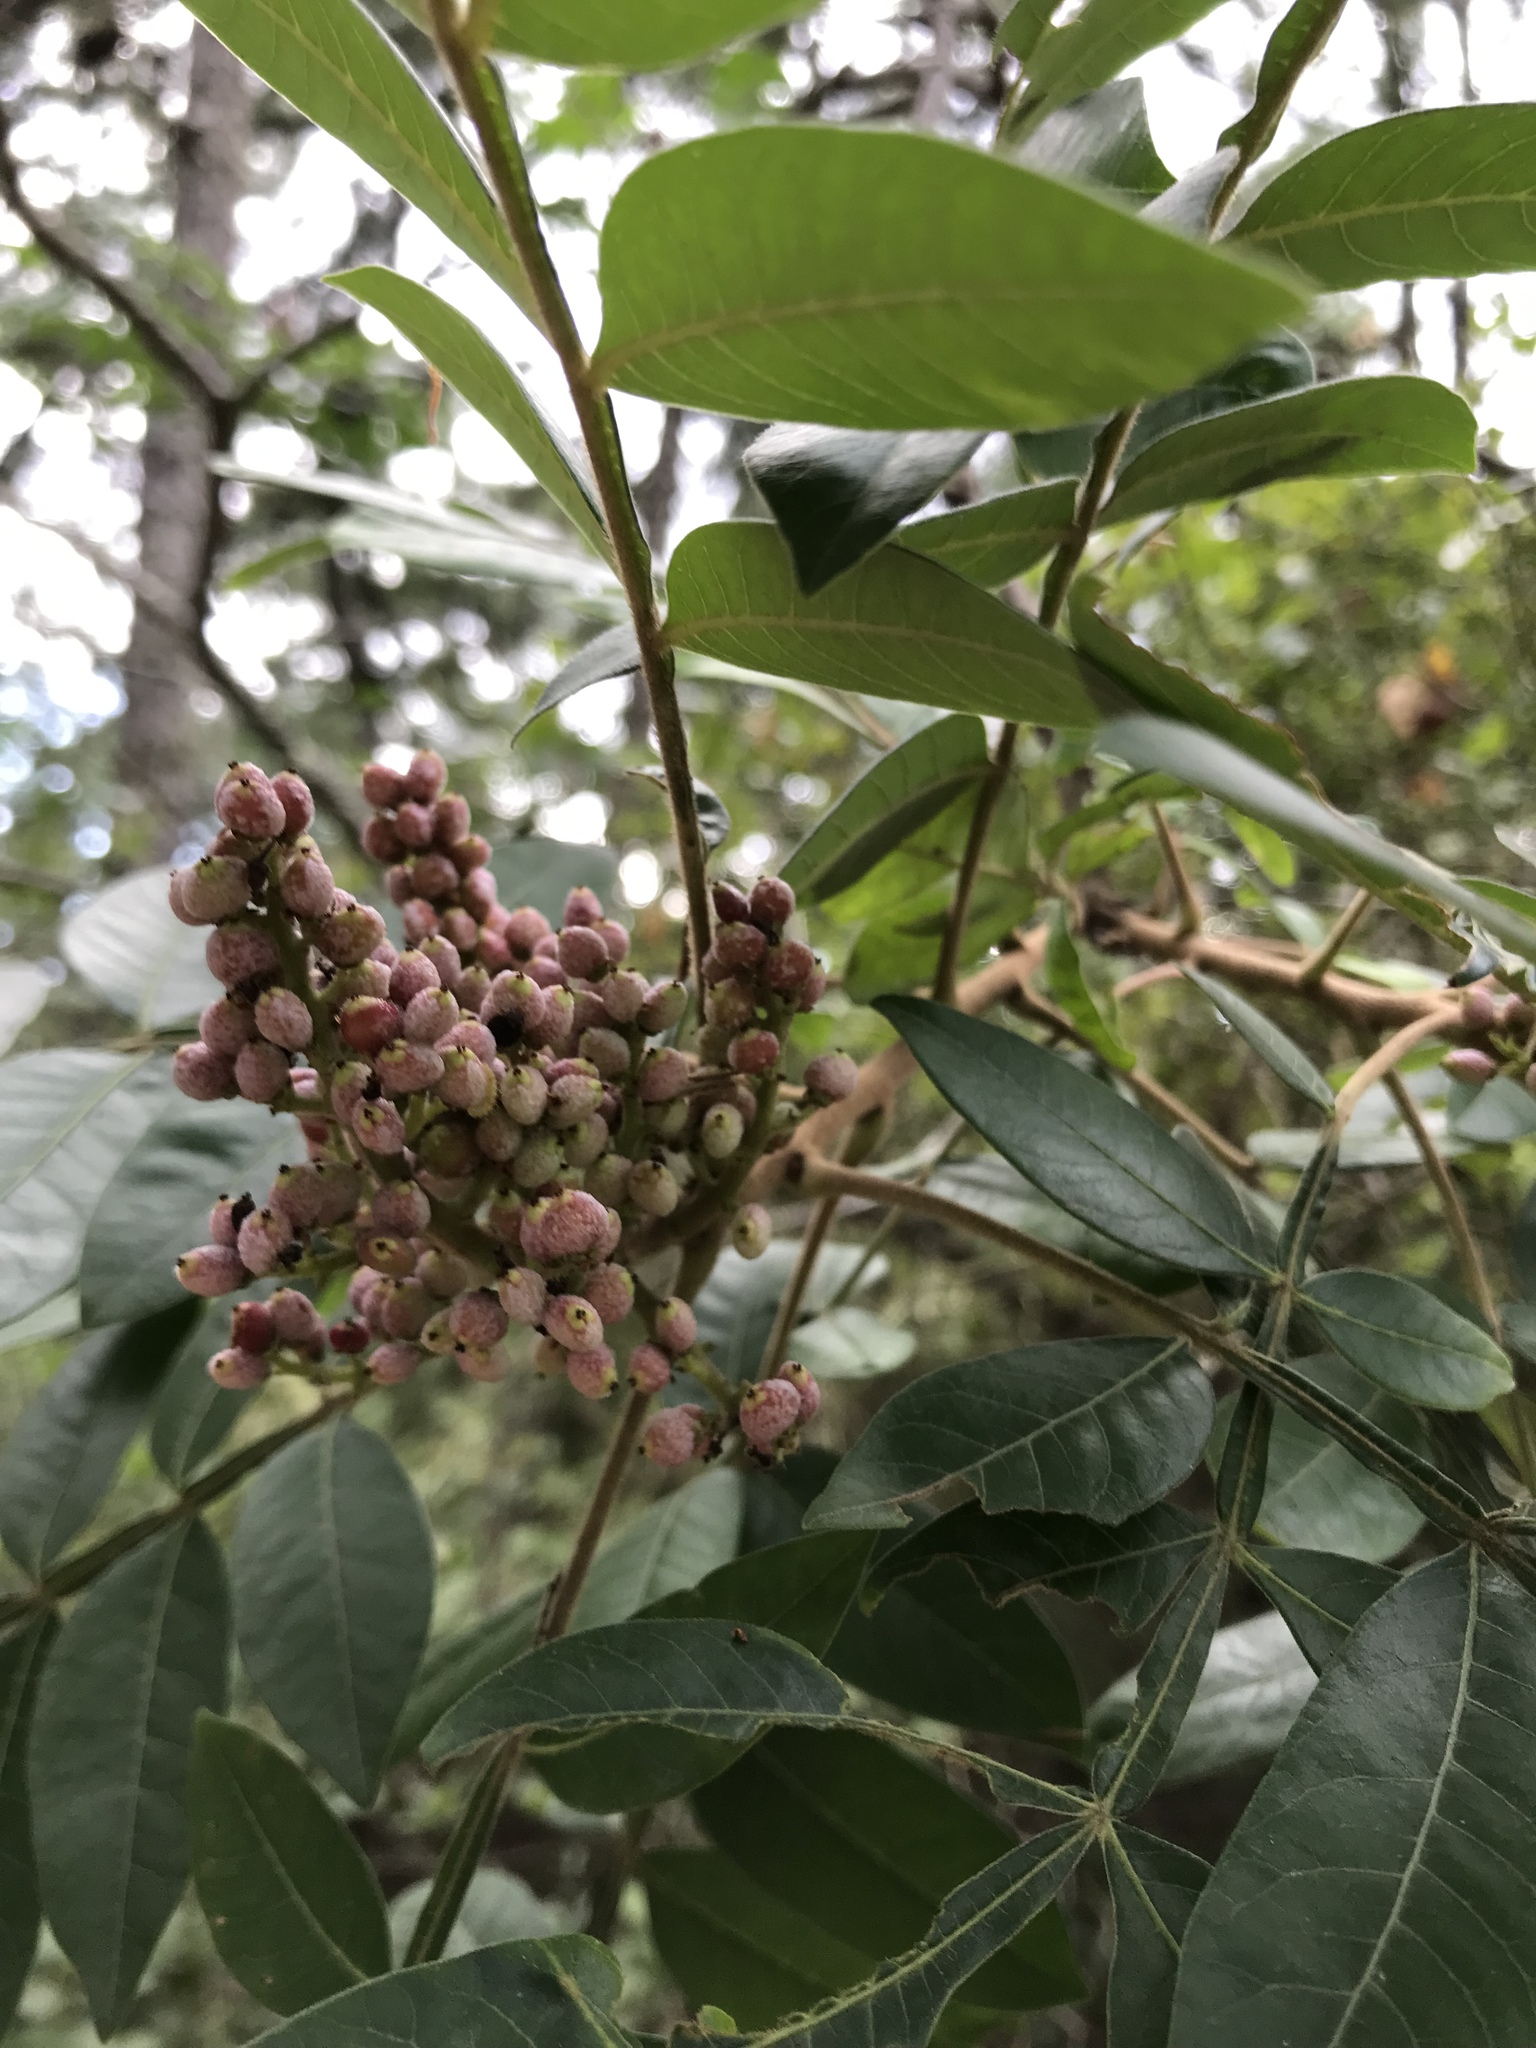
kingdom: Plantae
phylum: Tracheophyta
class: Magnoliopsida
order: Sapindales
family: Anacardiaceae
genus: Rhus
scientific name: Rhus copallina
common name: Shining sumac
